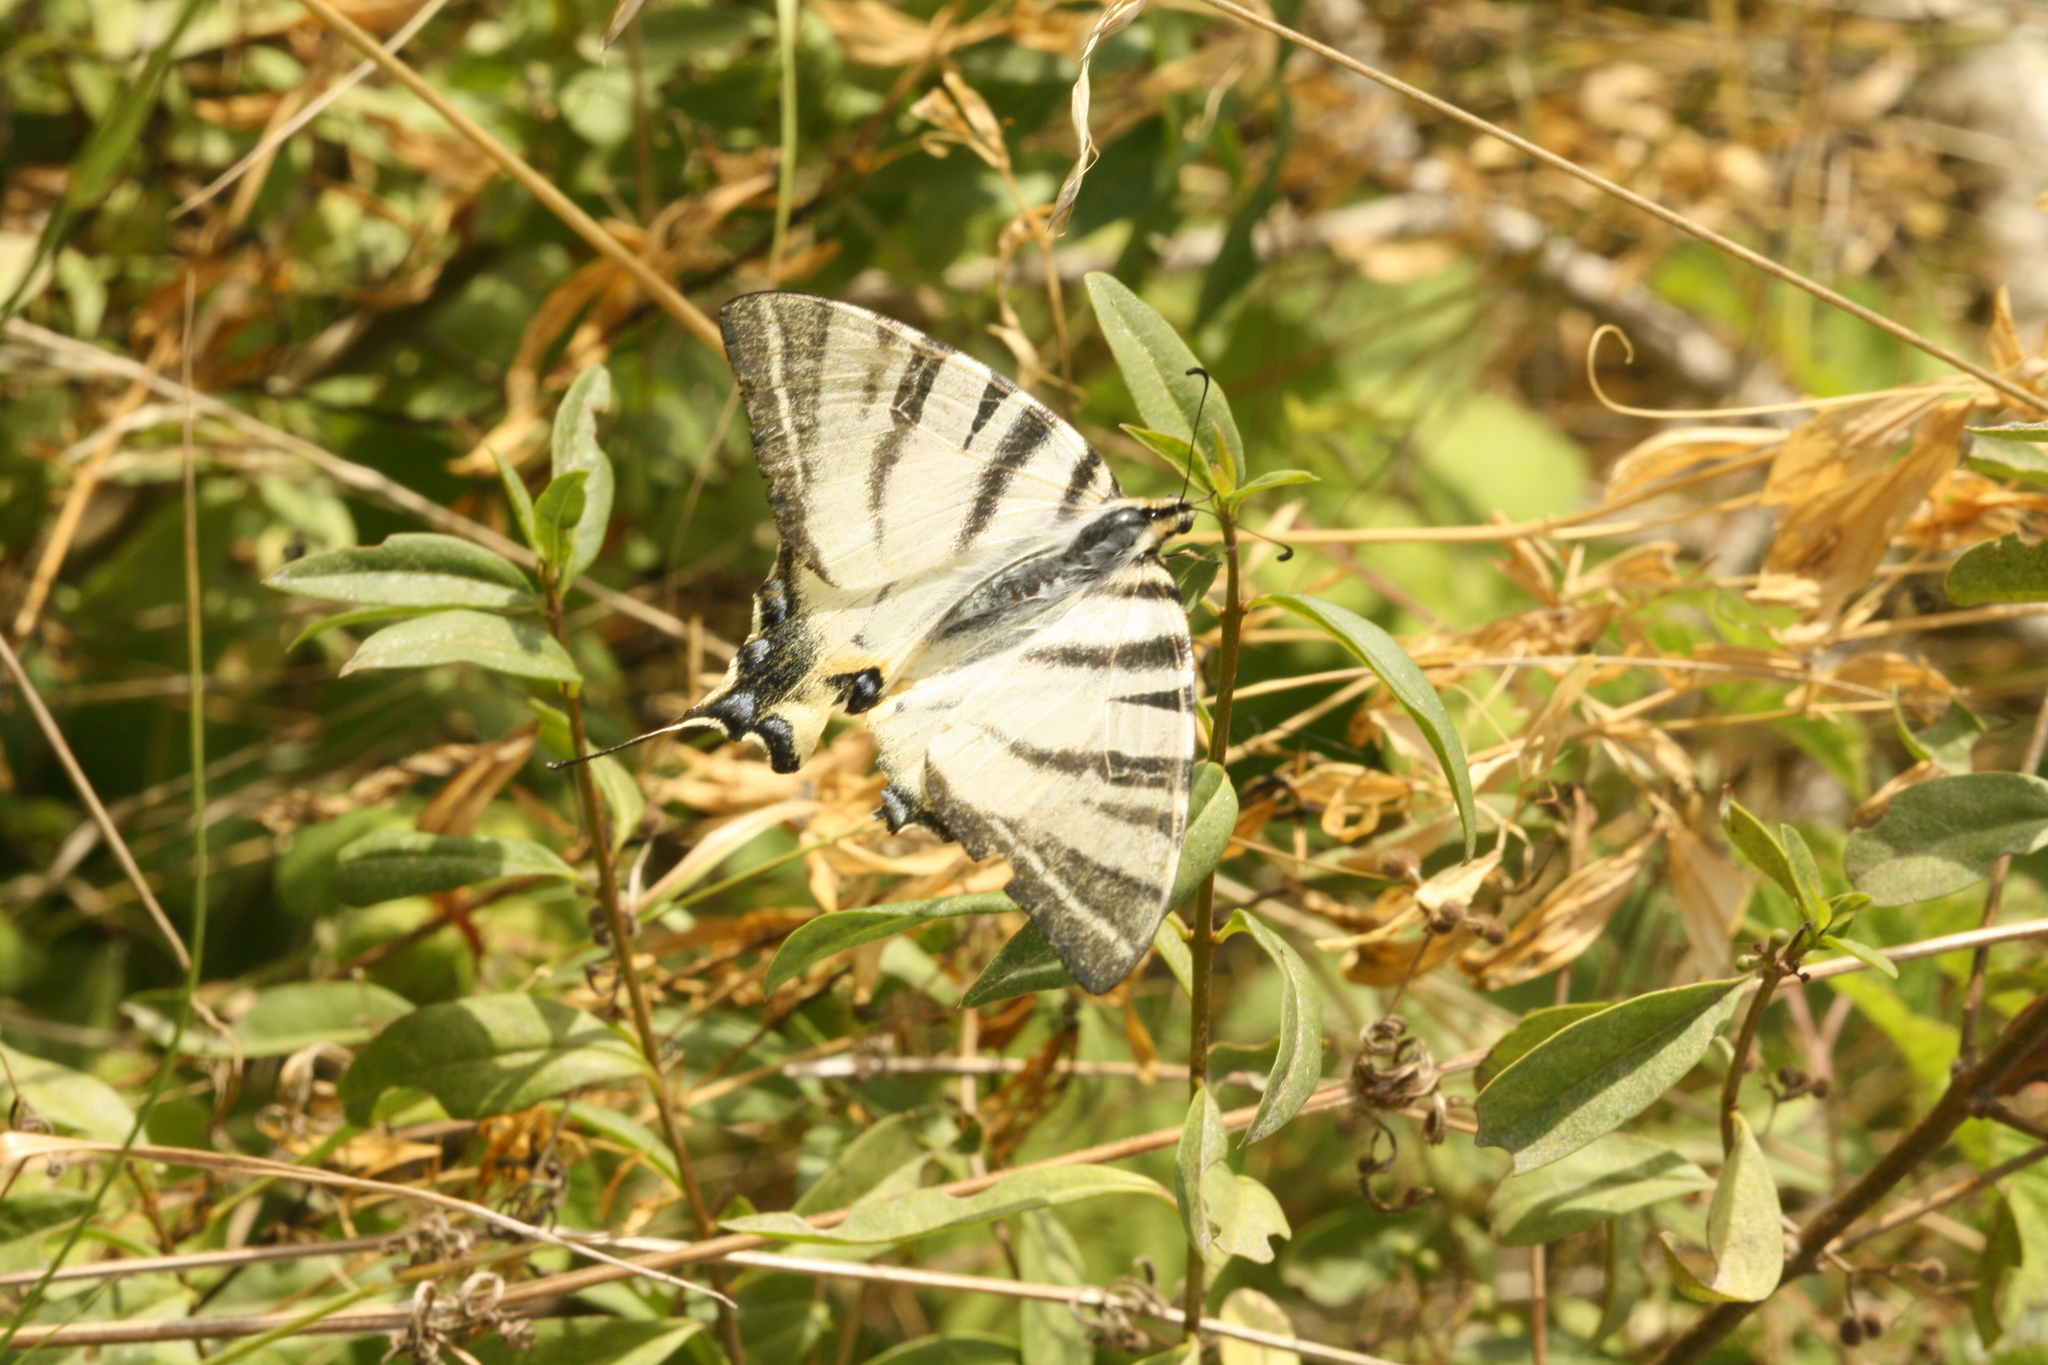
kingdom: Animalia
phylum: Arthropoda
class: Insecta
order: Lepidoptera
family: Papilionidae
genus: Iphiclides
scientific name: Iphiclides podalirius
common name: Scarce swallowtail
